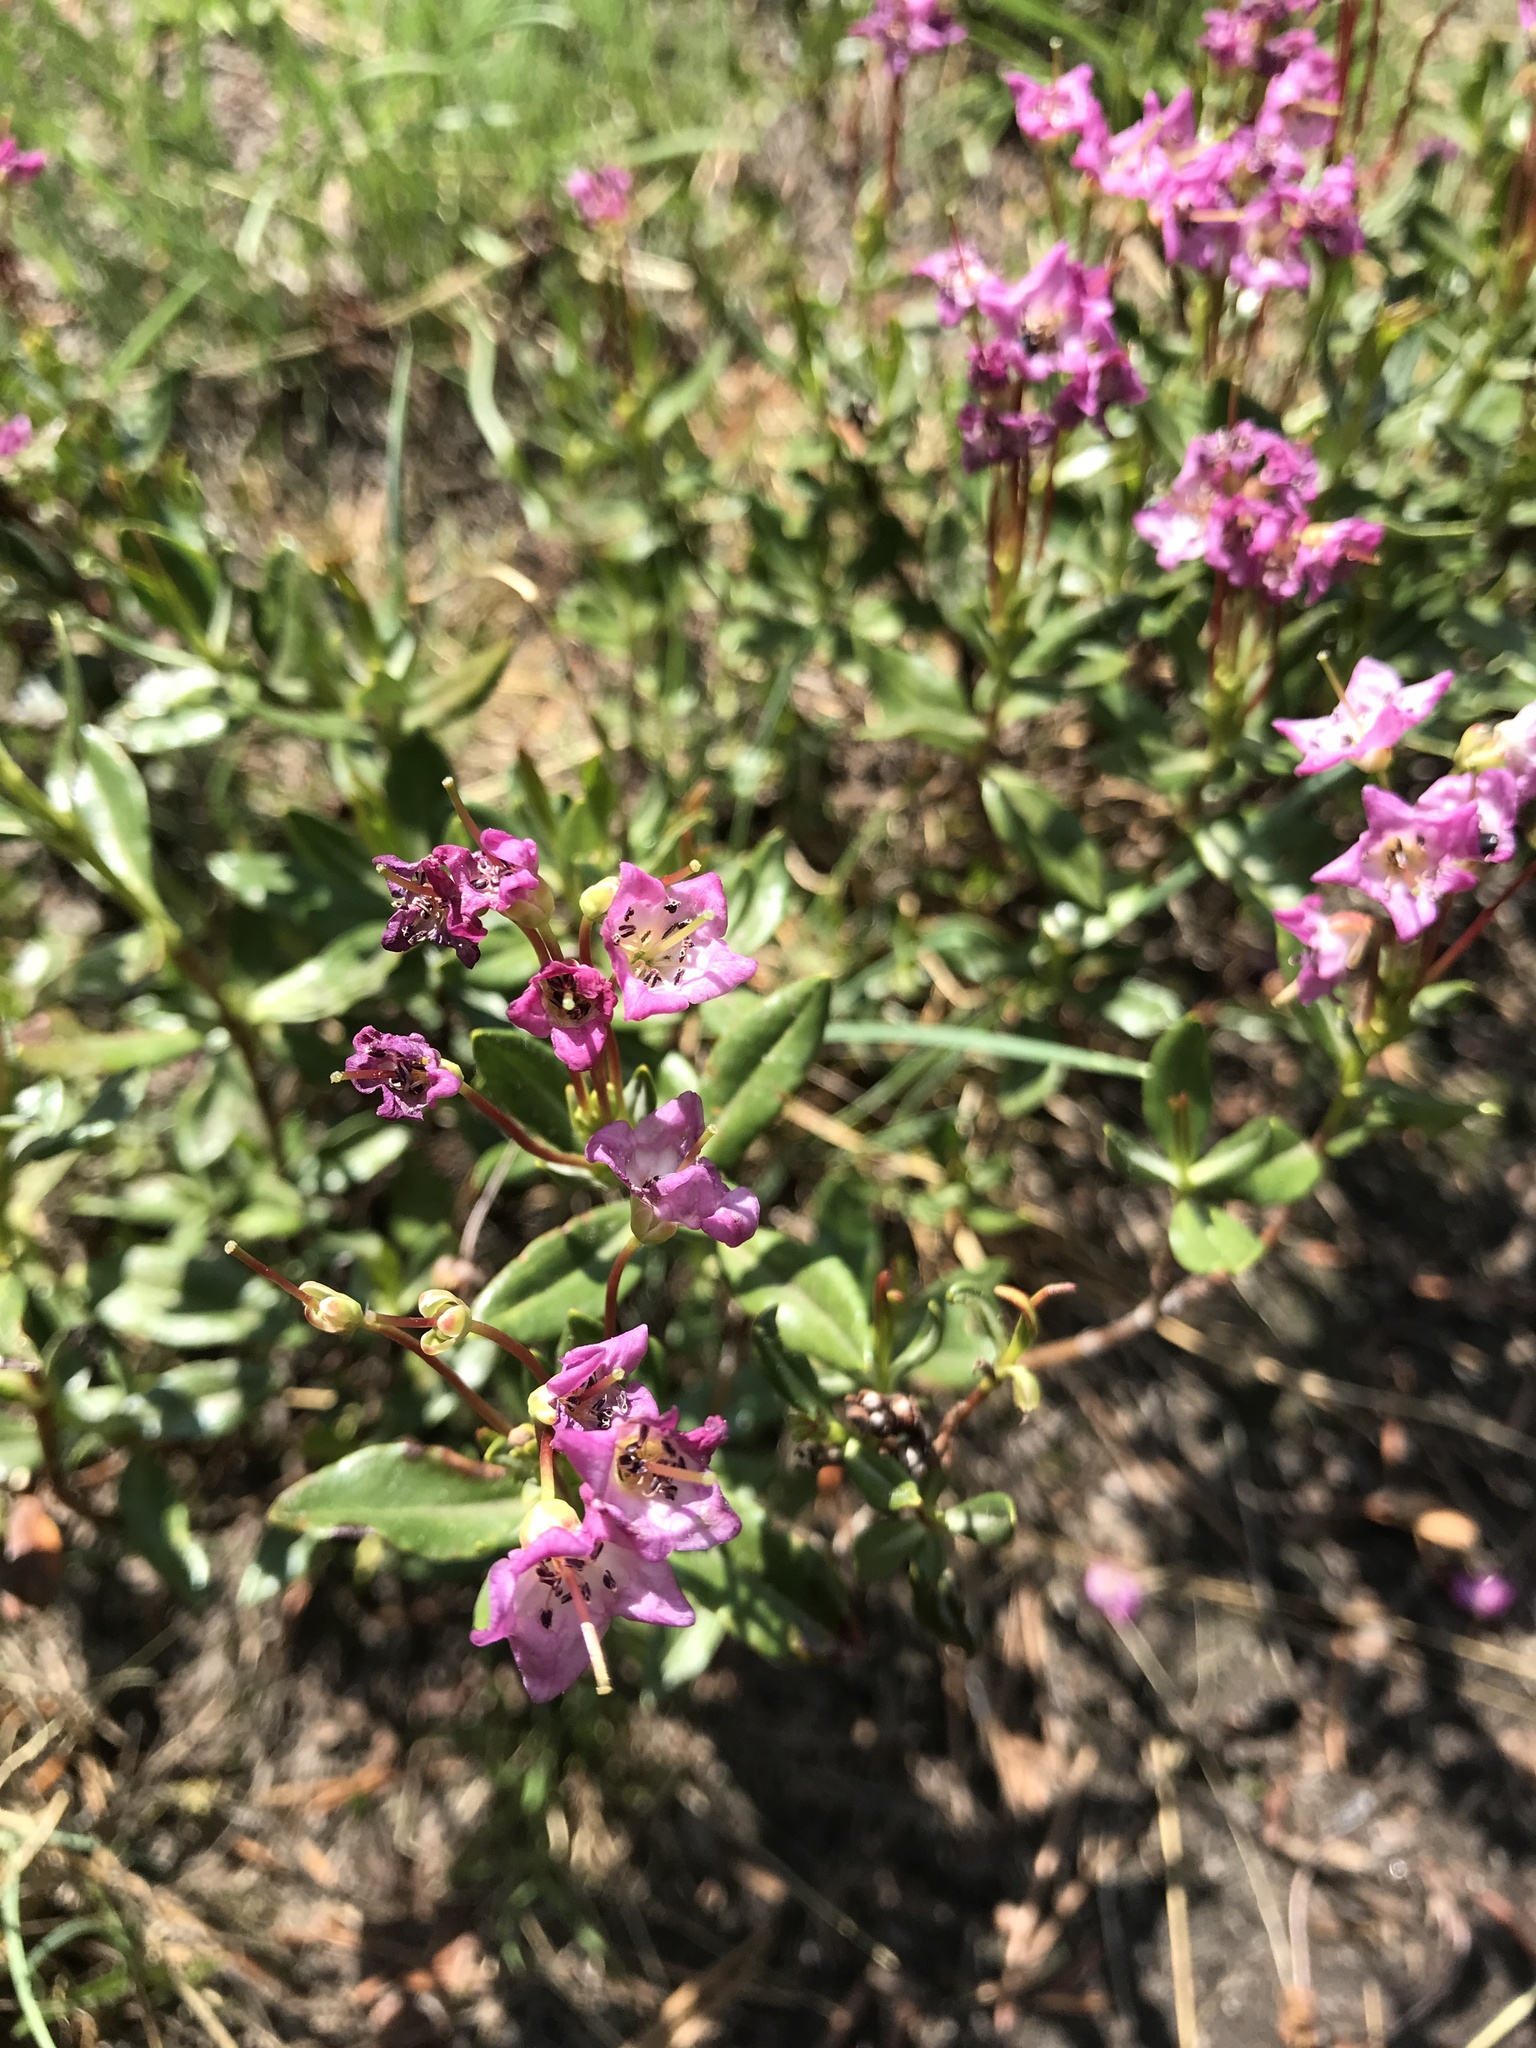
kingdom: Plantae
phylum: Tracheophyta
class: Magnoliopsida
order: Ericales
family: Ericaceae
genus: Kalmia
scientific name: Kalmia microphylla
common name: Alpine bog laurel
